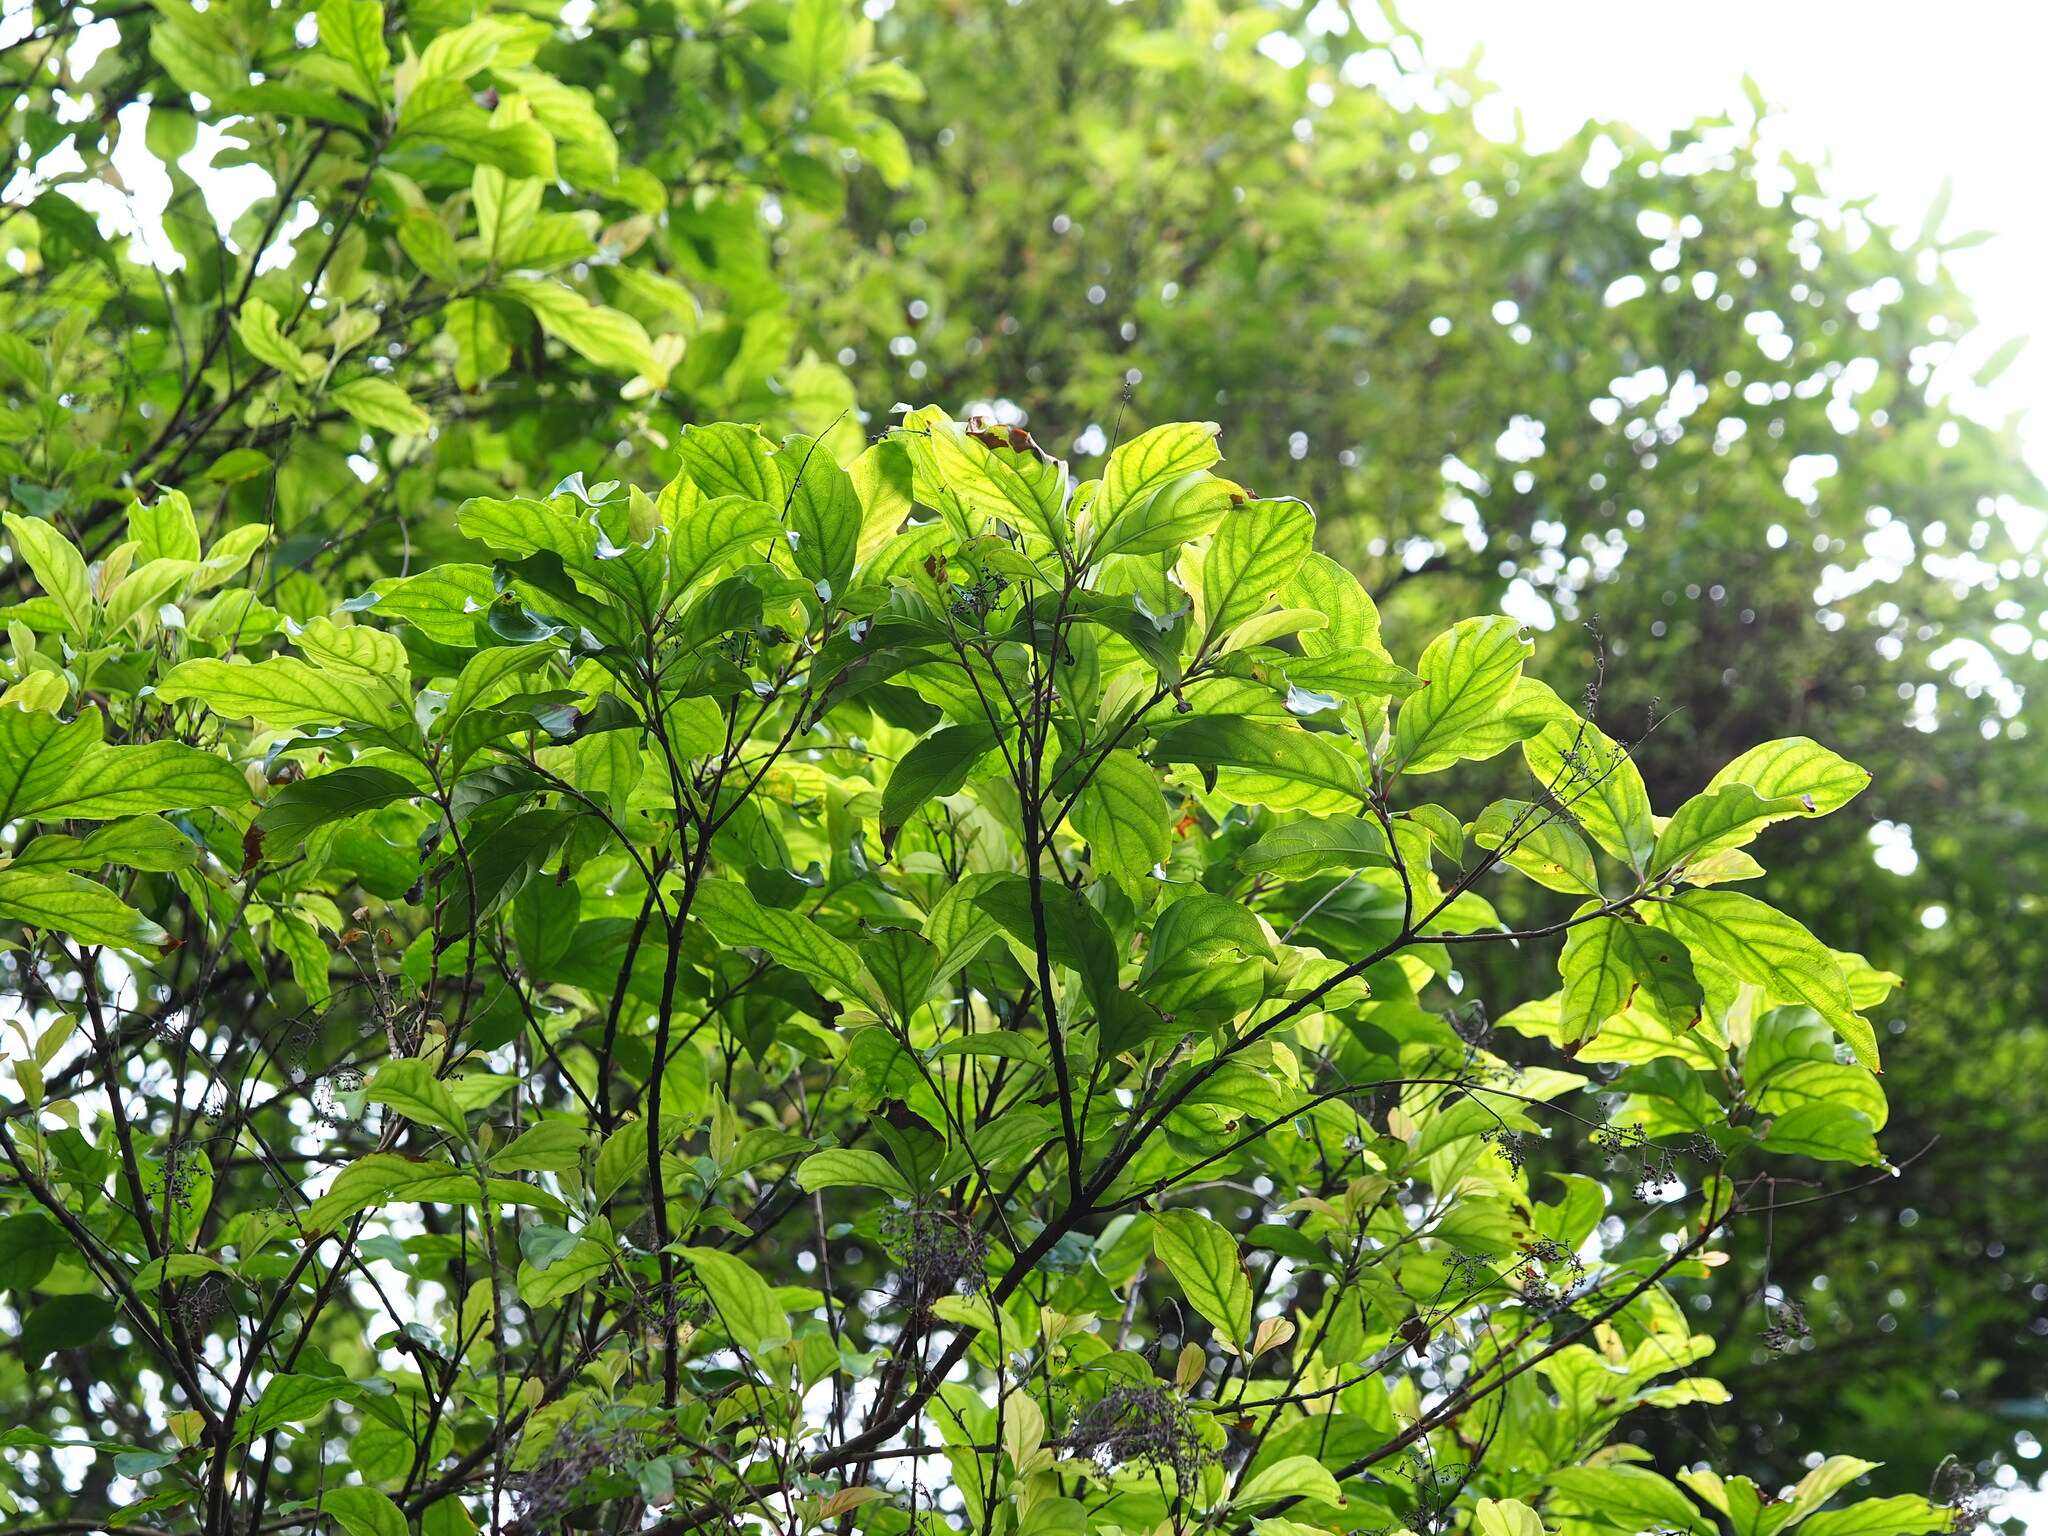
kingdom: Plantae
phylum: Tracheophyta
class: Magnoliopsida
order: Gentianales
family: Rubiaceae
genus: Wendlandia
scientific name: Wendlandia formosana
